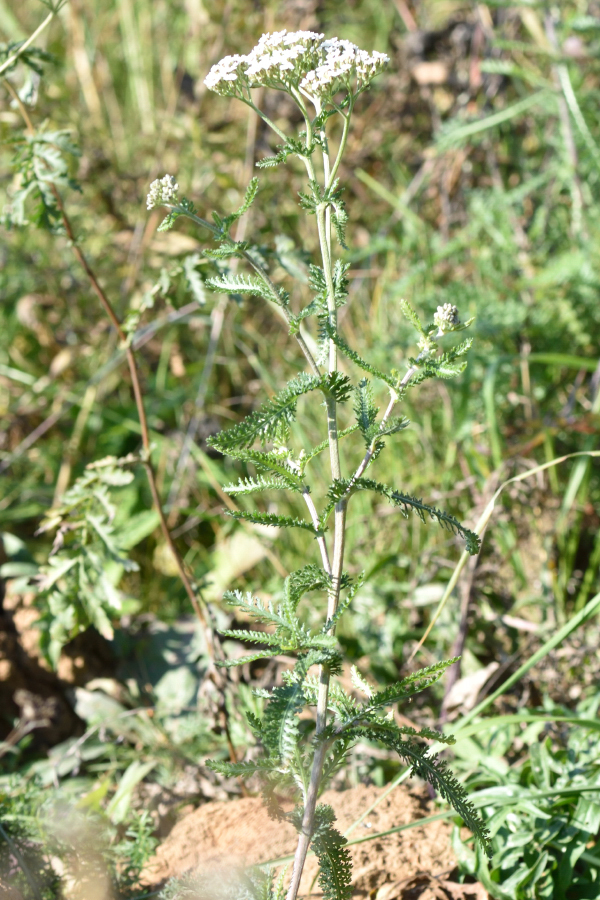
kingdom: Plantae
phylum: Tracheophyta
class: Magnoliopsida
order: Asterales
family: Asteraceae
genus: Achillea
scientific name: Achillea millefolium
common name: Yarrow
